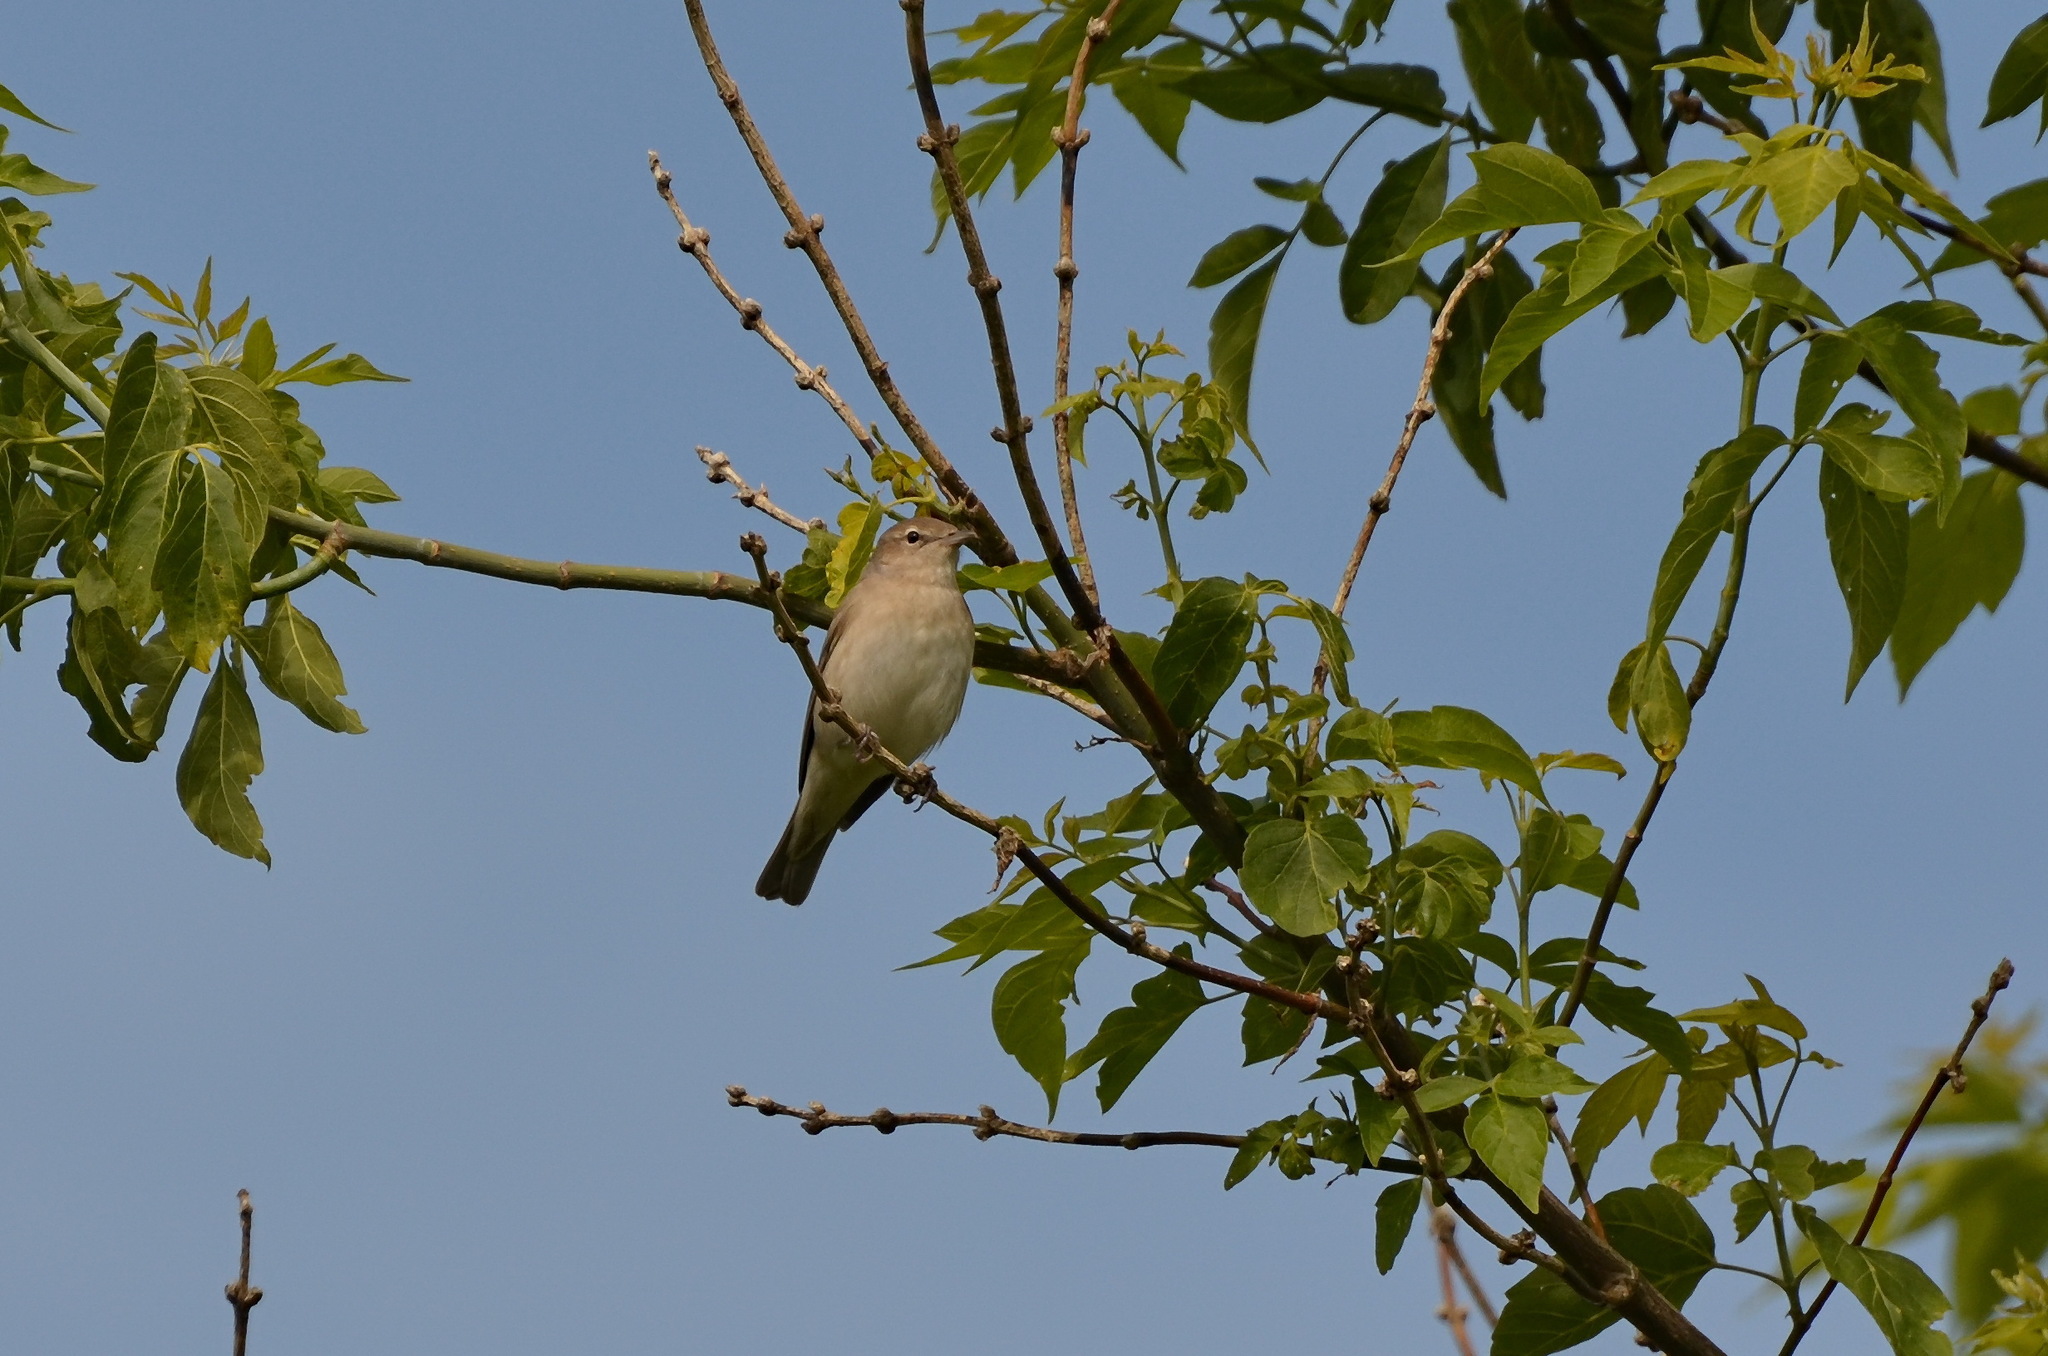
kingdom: Animalia
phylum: Chordata
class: Aves
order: Passeriformes
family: Sylviidae
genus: Sylvia
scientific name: Sylvia borin
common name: Garden warbler
